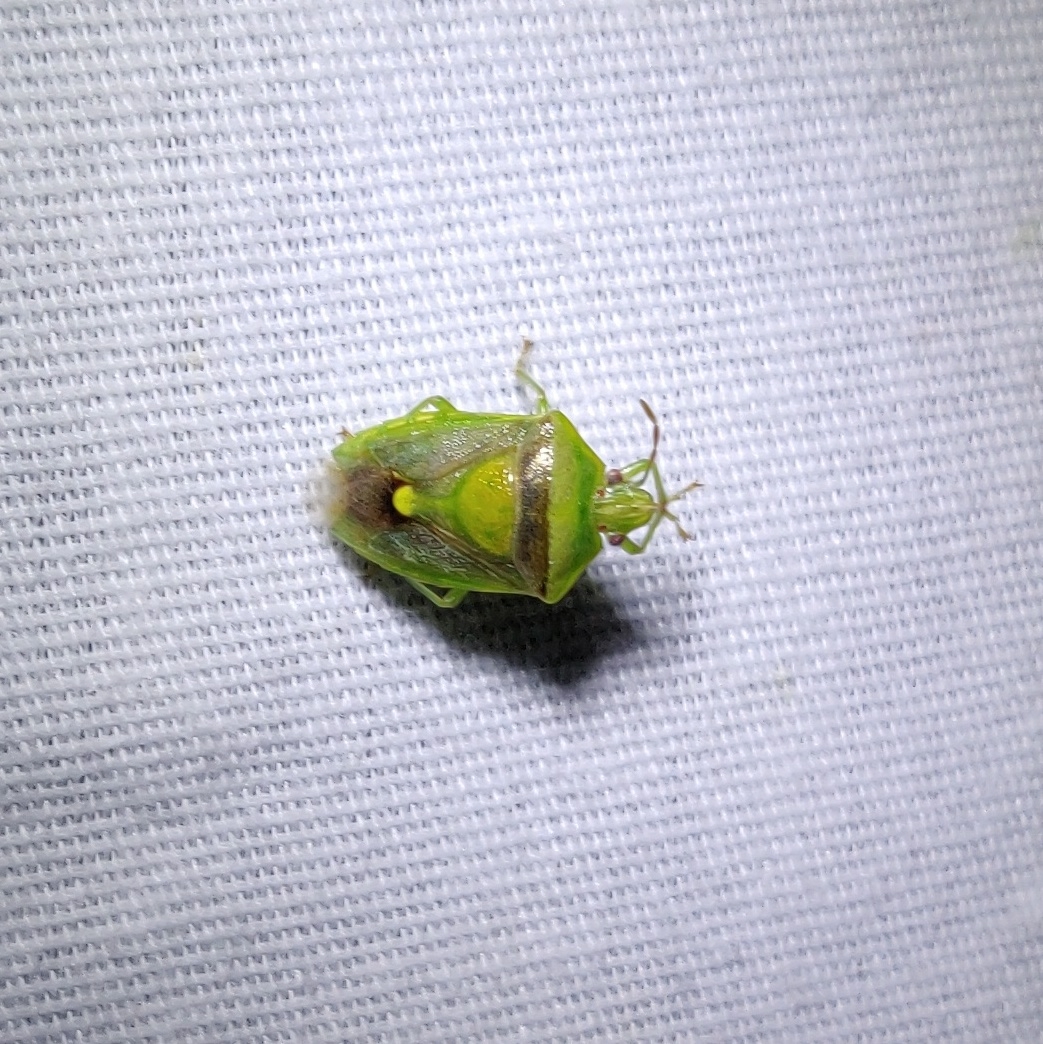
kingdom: Animalia
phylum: Arthropoda
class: Insecta
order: Hemiptera
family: Pentatomidae
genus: Banasa
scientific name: Banasa dimidiata
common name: Green burgundy stink bug
